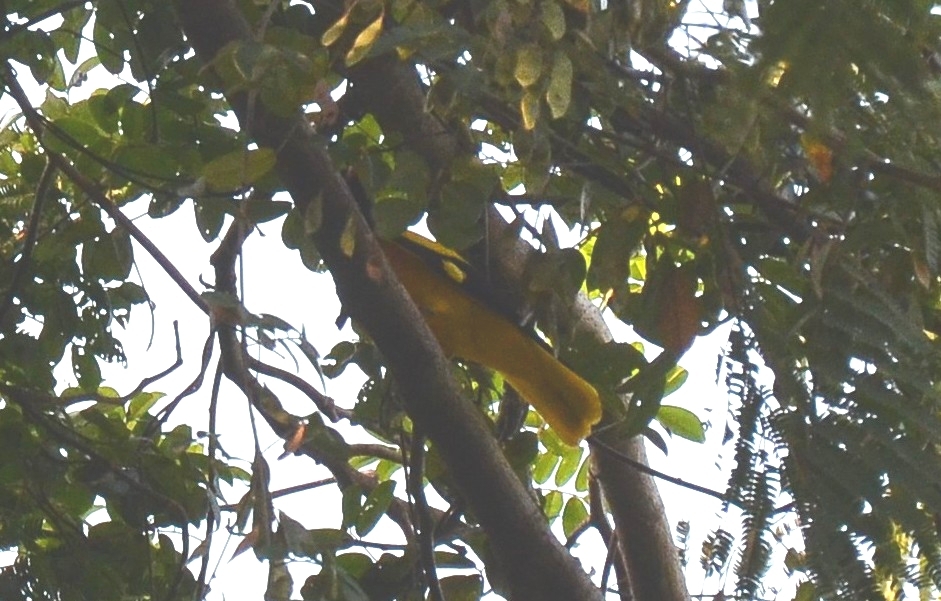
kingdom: Animalia
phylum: Chordata
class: Aves
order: Passeriformes
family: Oriolidae
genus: Oriolus
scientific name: Oriolus xanthornus
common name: Black-hooded oriole
